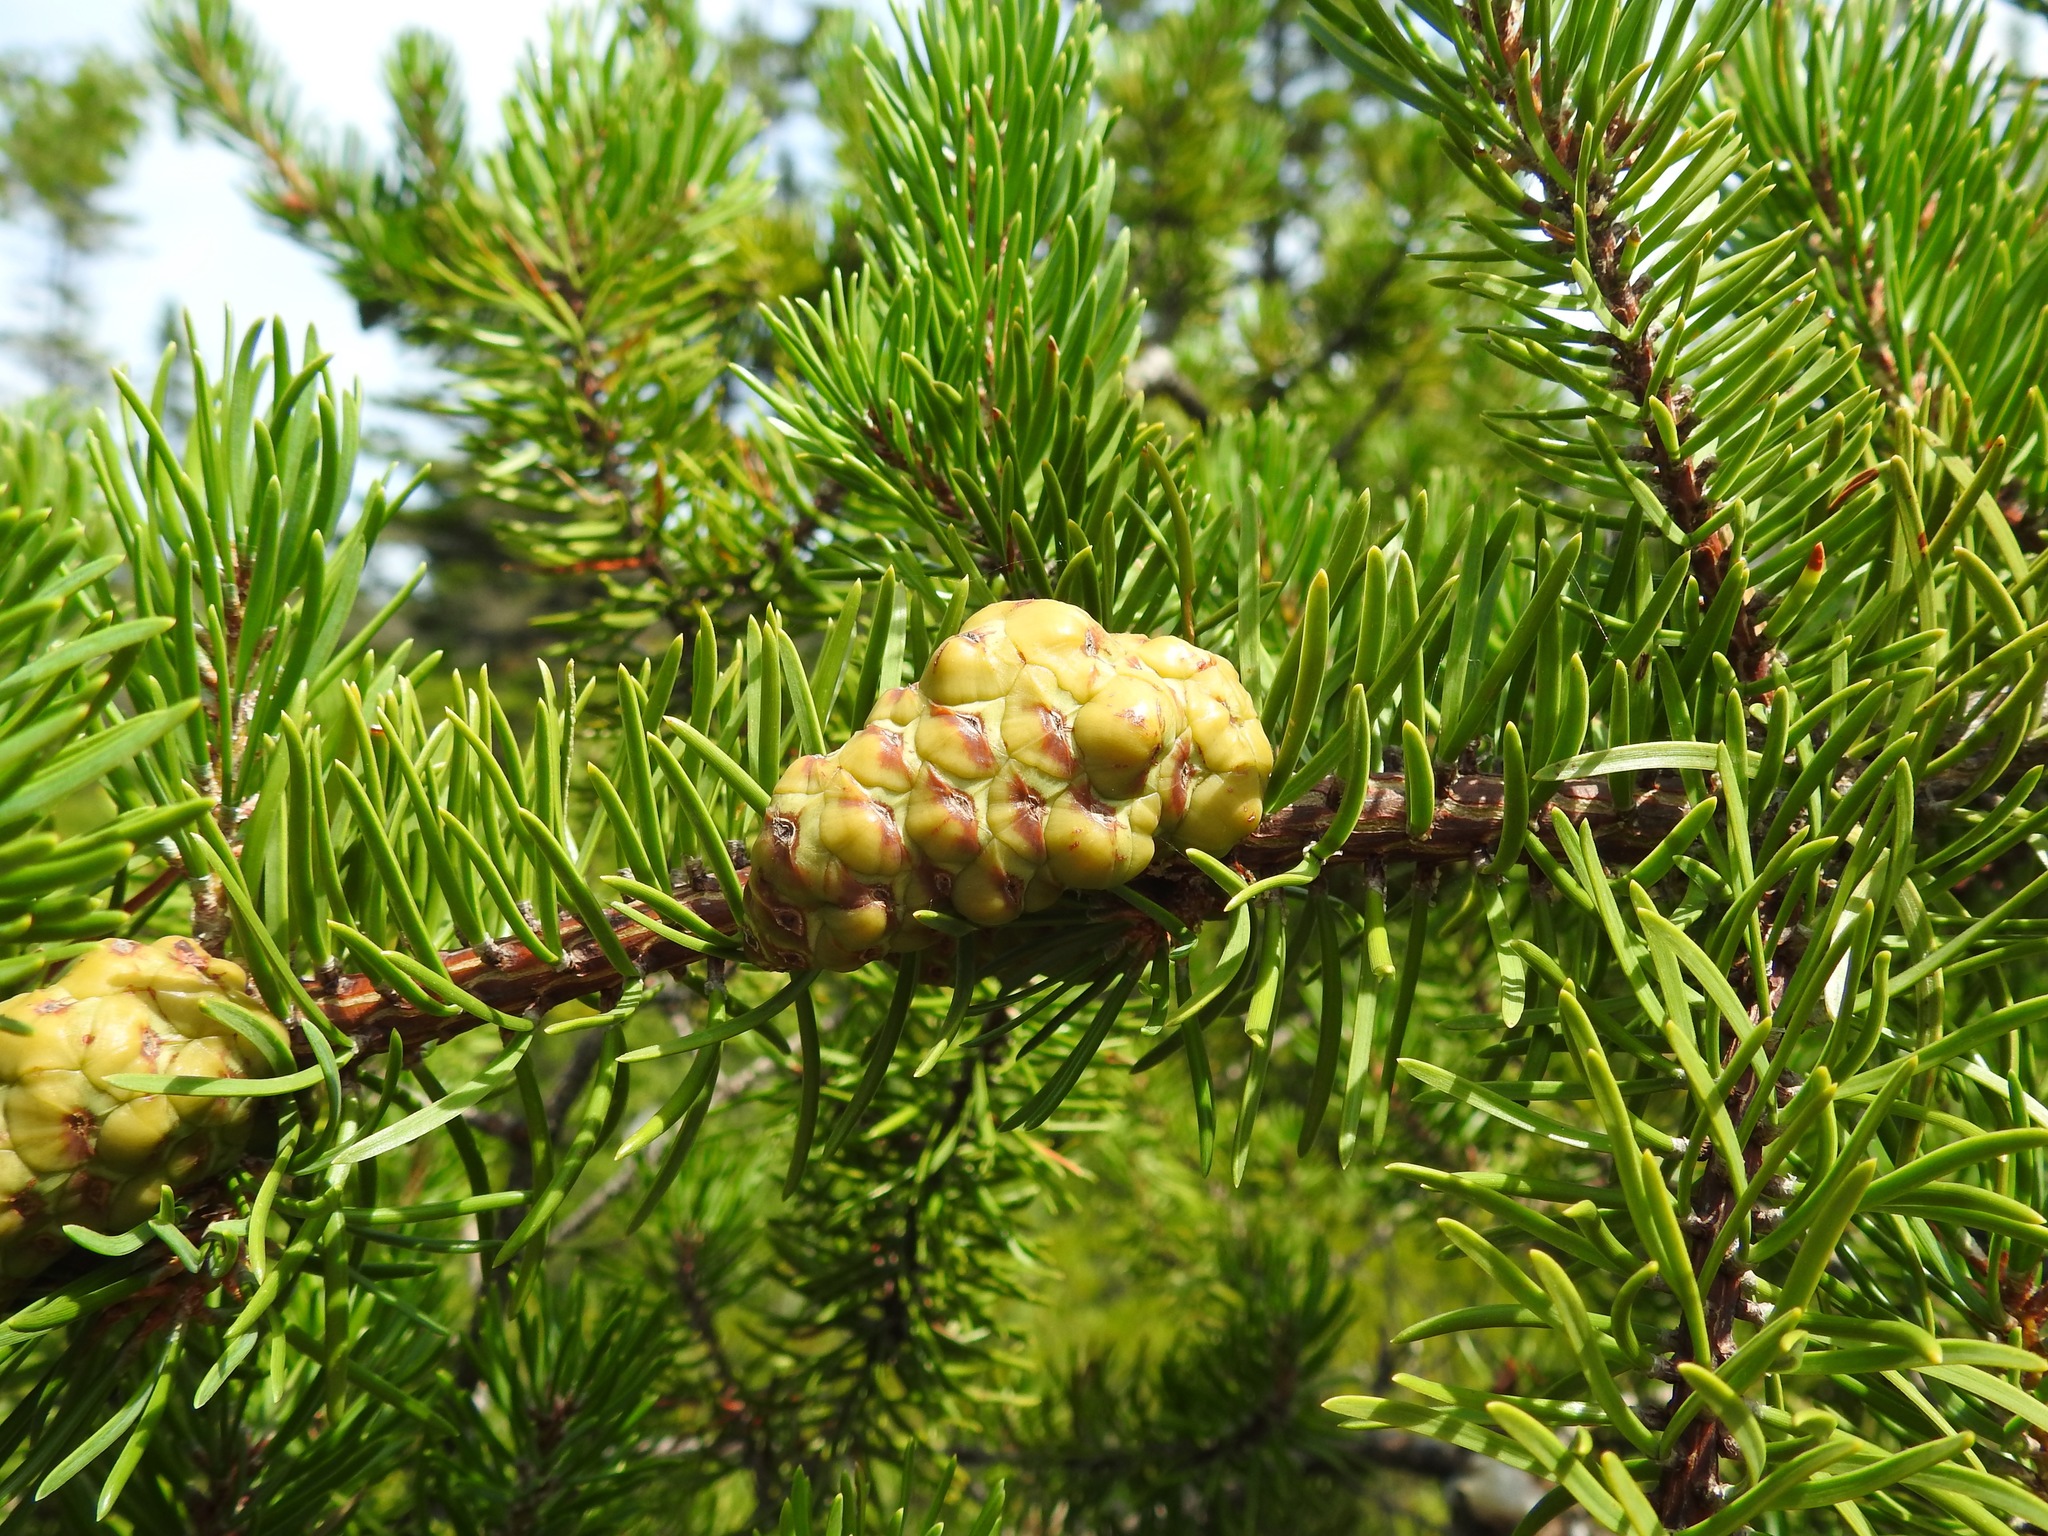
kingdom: Plantae
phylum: Tracheophyta
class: Pinopsida
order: Pinales
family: Pinaceae
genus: Pinus
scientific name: Pinus banksiana
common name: Jack pine
